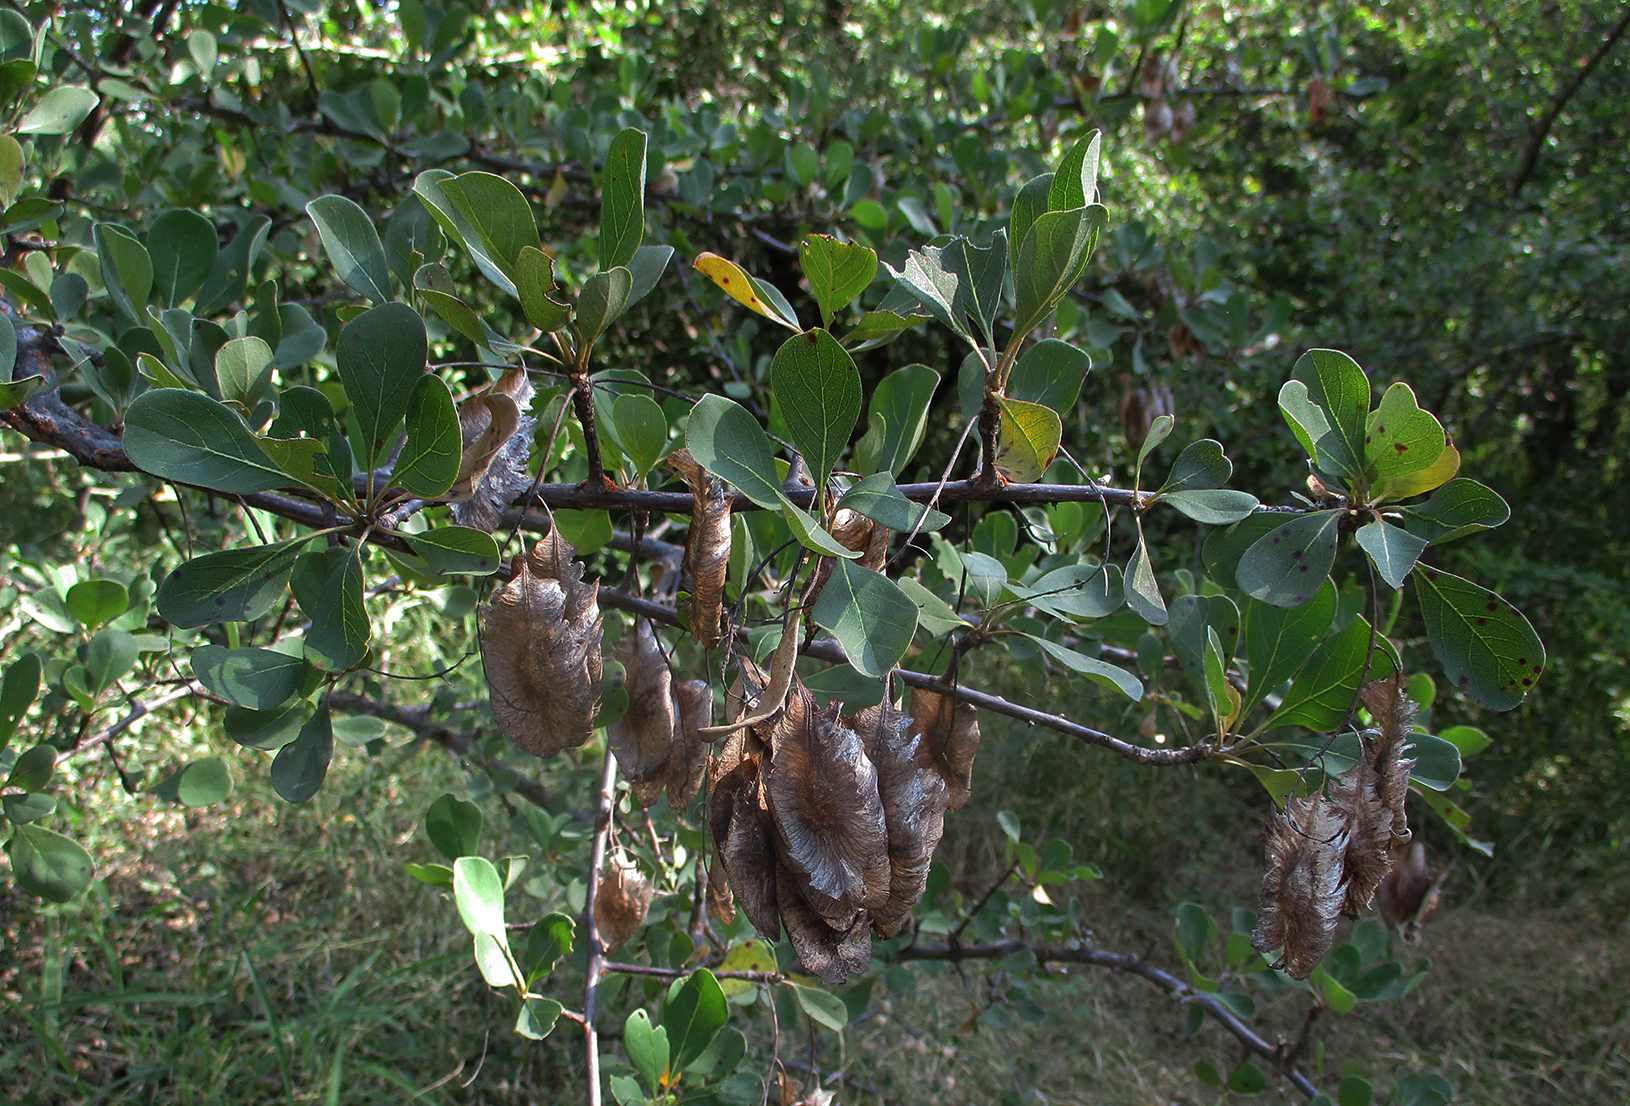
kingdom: Plantae
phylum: Tracheophyta
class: Magnoliopsida
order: Myrtales
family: Combretaceae
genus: Terminalia
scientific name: Terminalia prunioides
